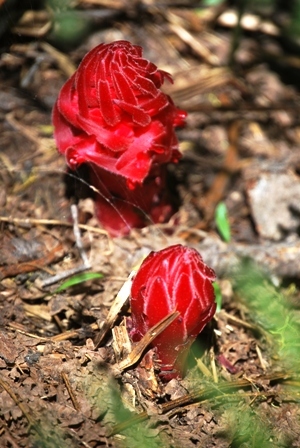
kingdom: Plantae
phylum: Tracheophyta
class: Magnoliopsida
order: Ericales
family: Ericaceae
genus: Sarcodes
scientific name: Sarcodes sanguinea
